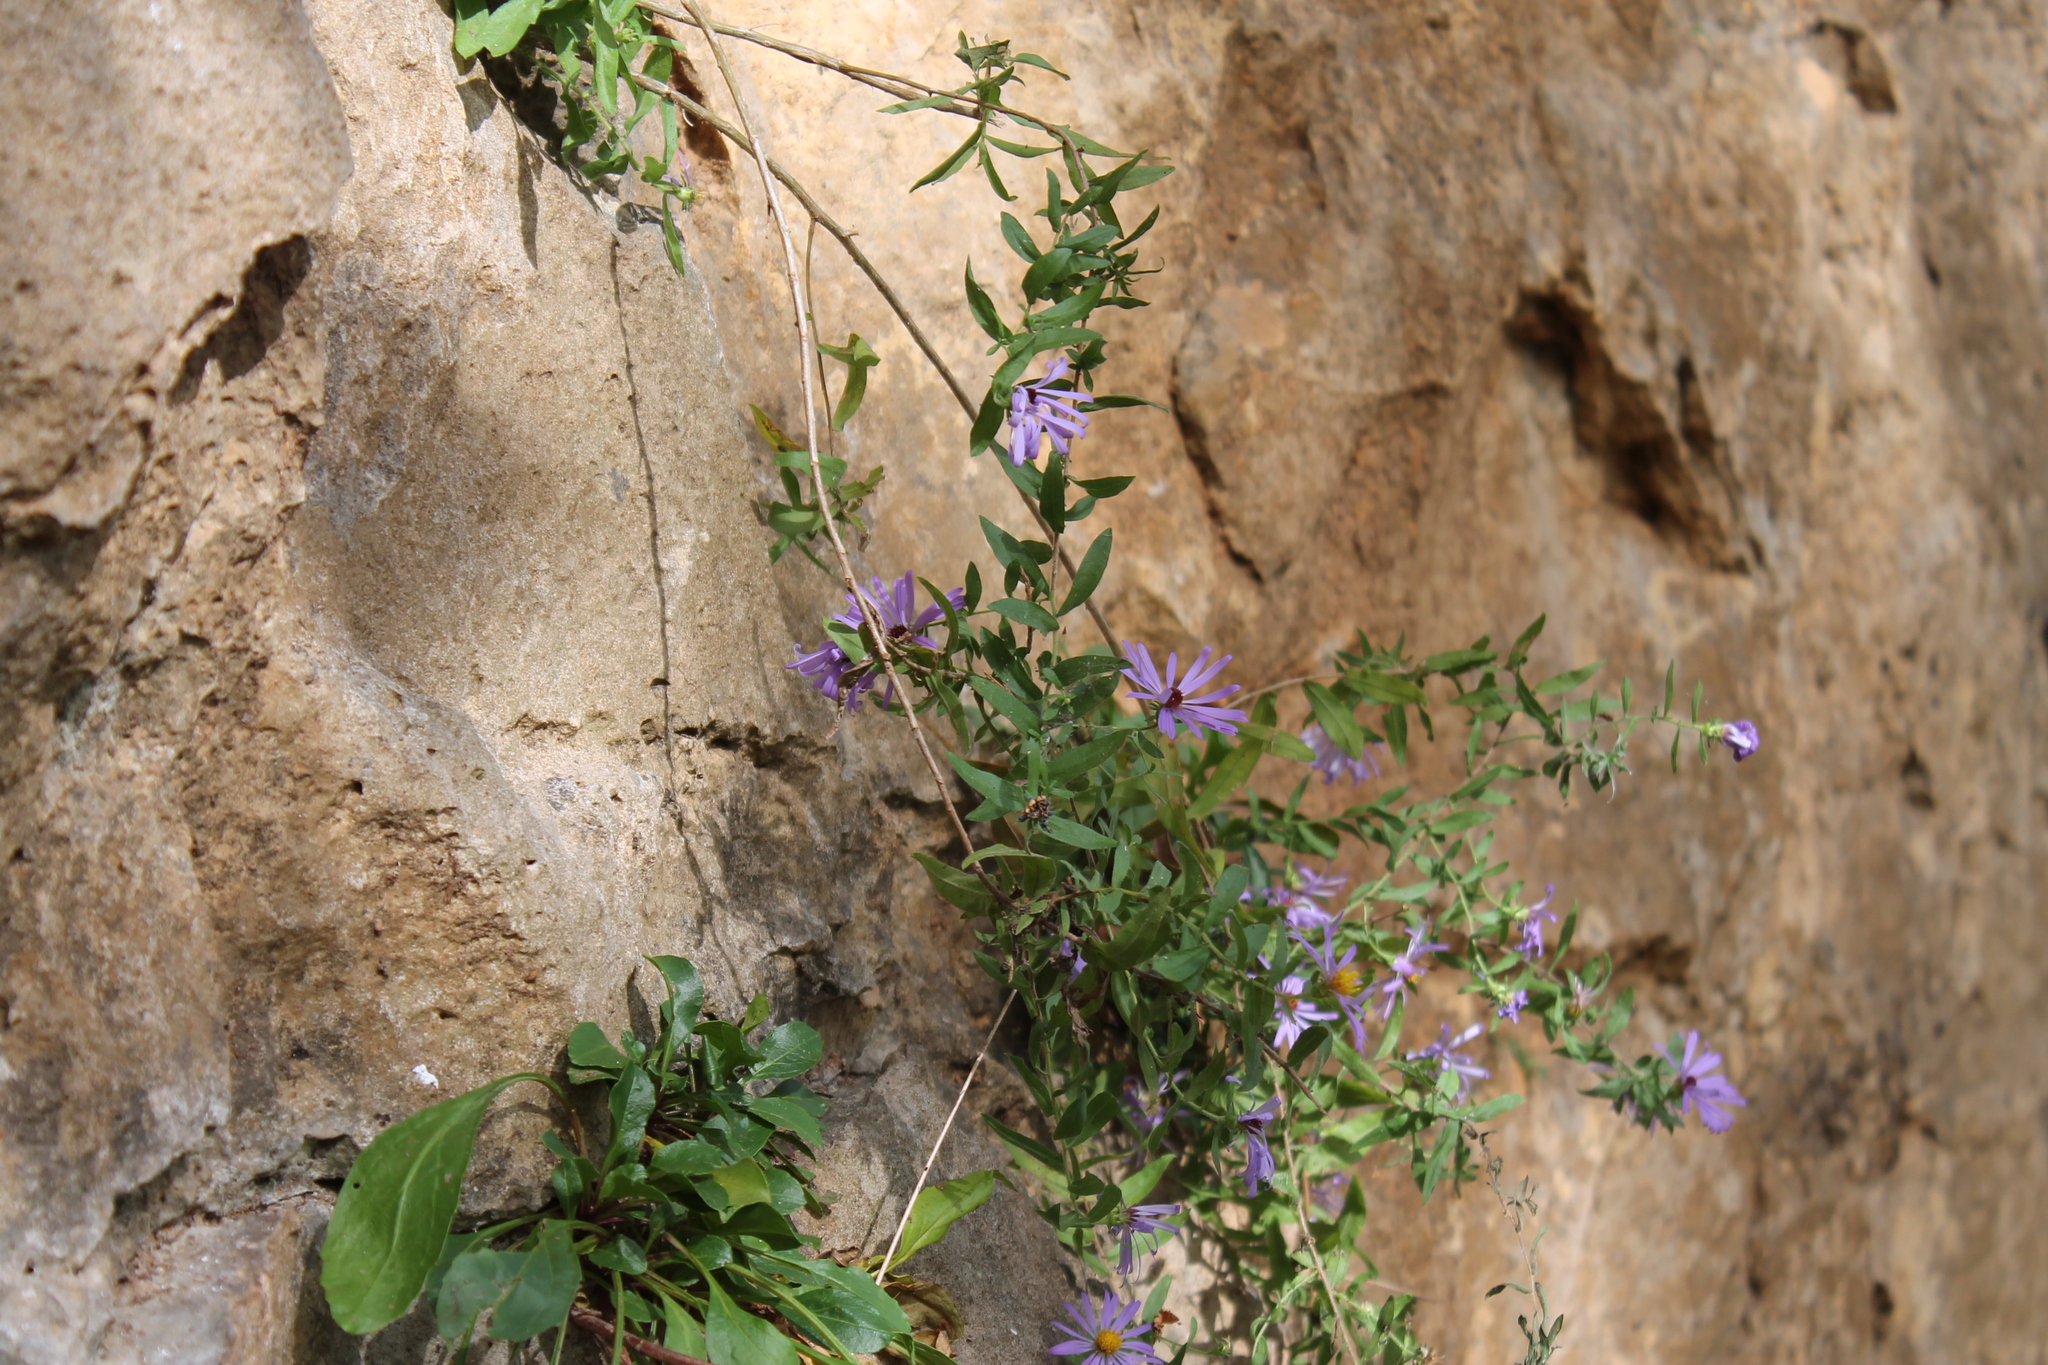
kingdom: Plantae
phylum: Tracheophyta
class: Magnoliopsida
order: Asterales
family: Asteraceae
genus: Symphyotrichum
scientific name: Symphyotrichum oblongifolium
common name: Aromatic aster
